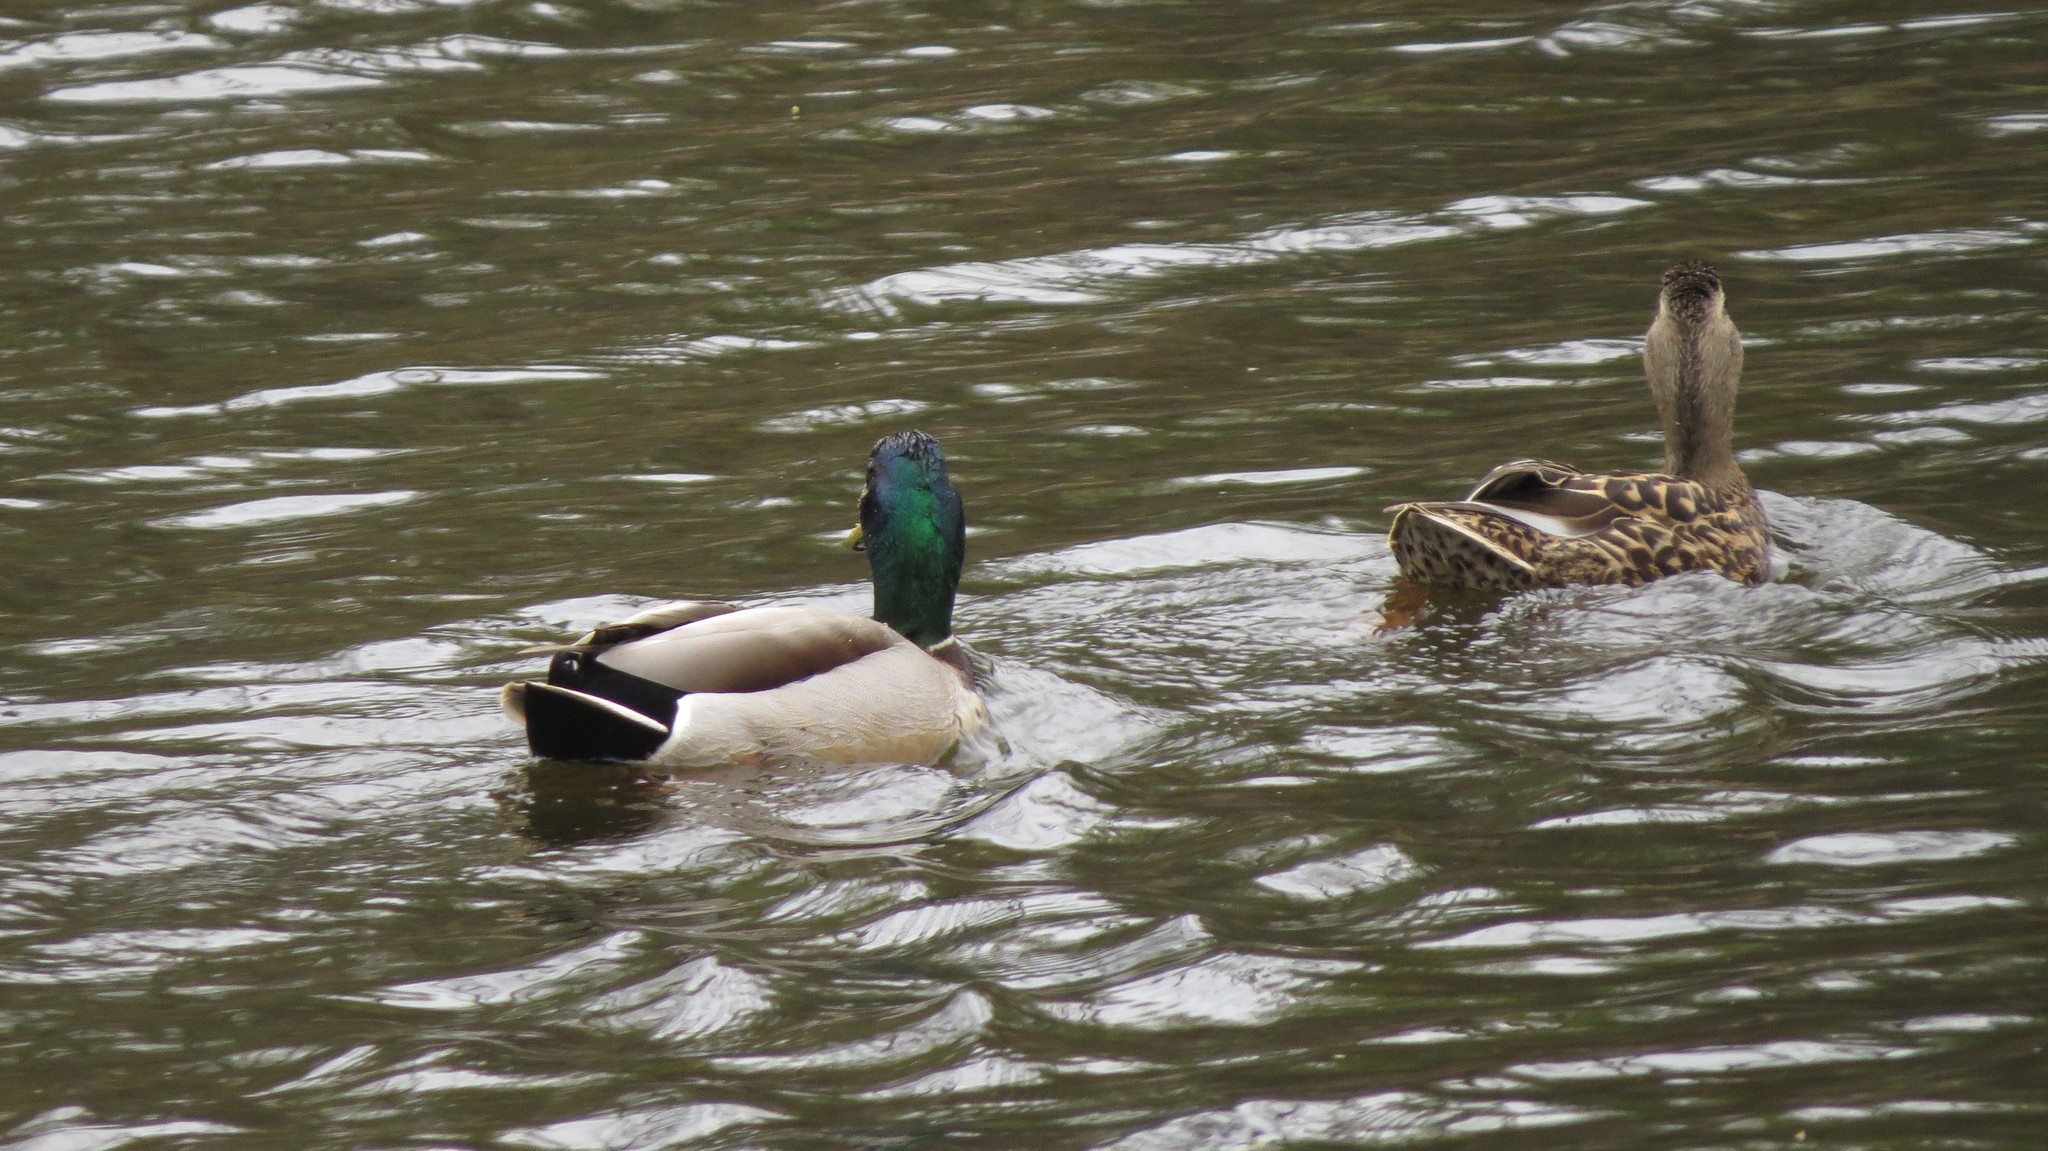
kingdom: Animalia
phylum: Chordata
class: Aves
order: Anseriformes
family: Anatidae
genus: Anas
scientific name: Anas platyrhynchos
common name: Mallard
